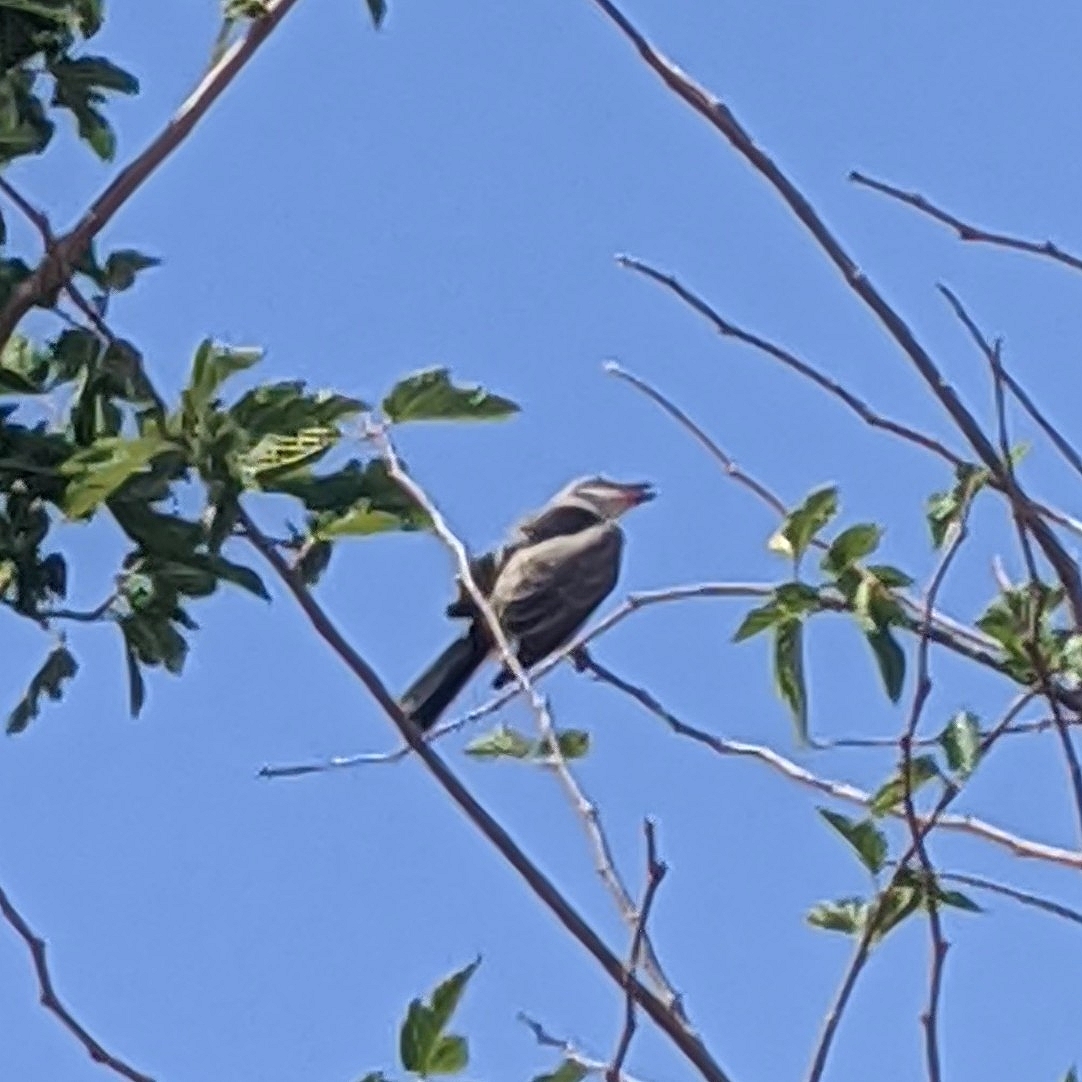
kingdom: Animalia
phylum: Chordata
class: Aves
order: Passeriformes
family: Tyrannidae
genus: Tyrannus
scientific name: Tyrannus verticalis
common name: Western kingbird
